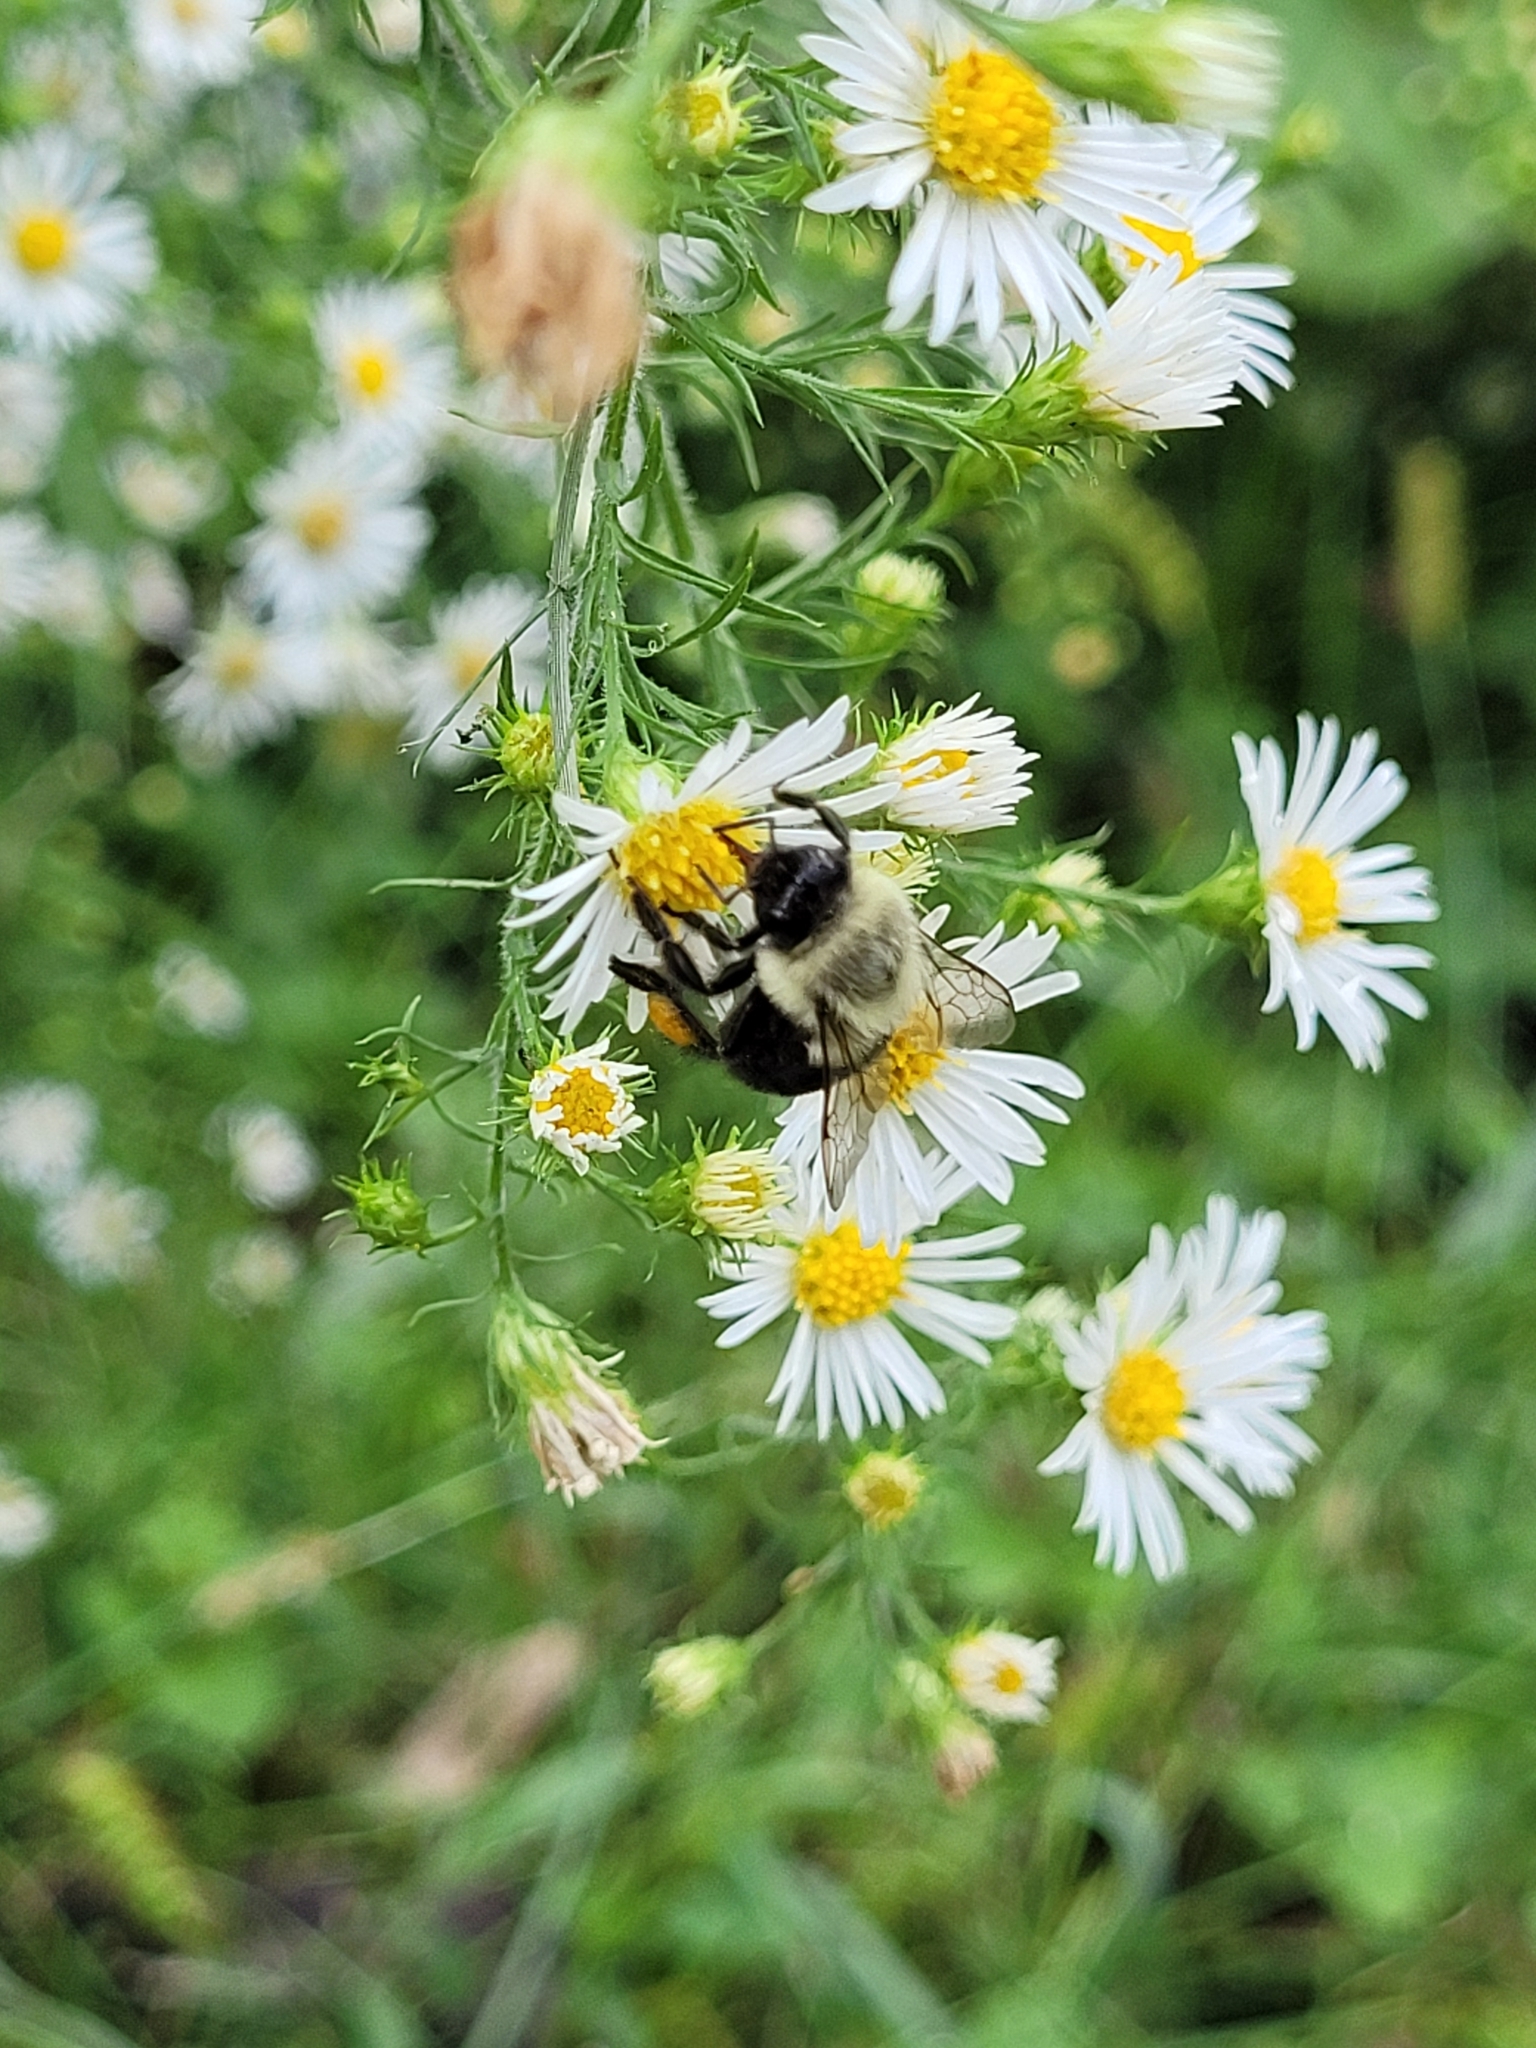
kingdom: Animalia
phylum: Arthropoda
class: Insecta
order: Hymenoptera
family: Apidae
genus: Bombus
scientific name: Bombus impatiens
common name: Common eastern bumble bee
